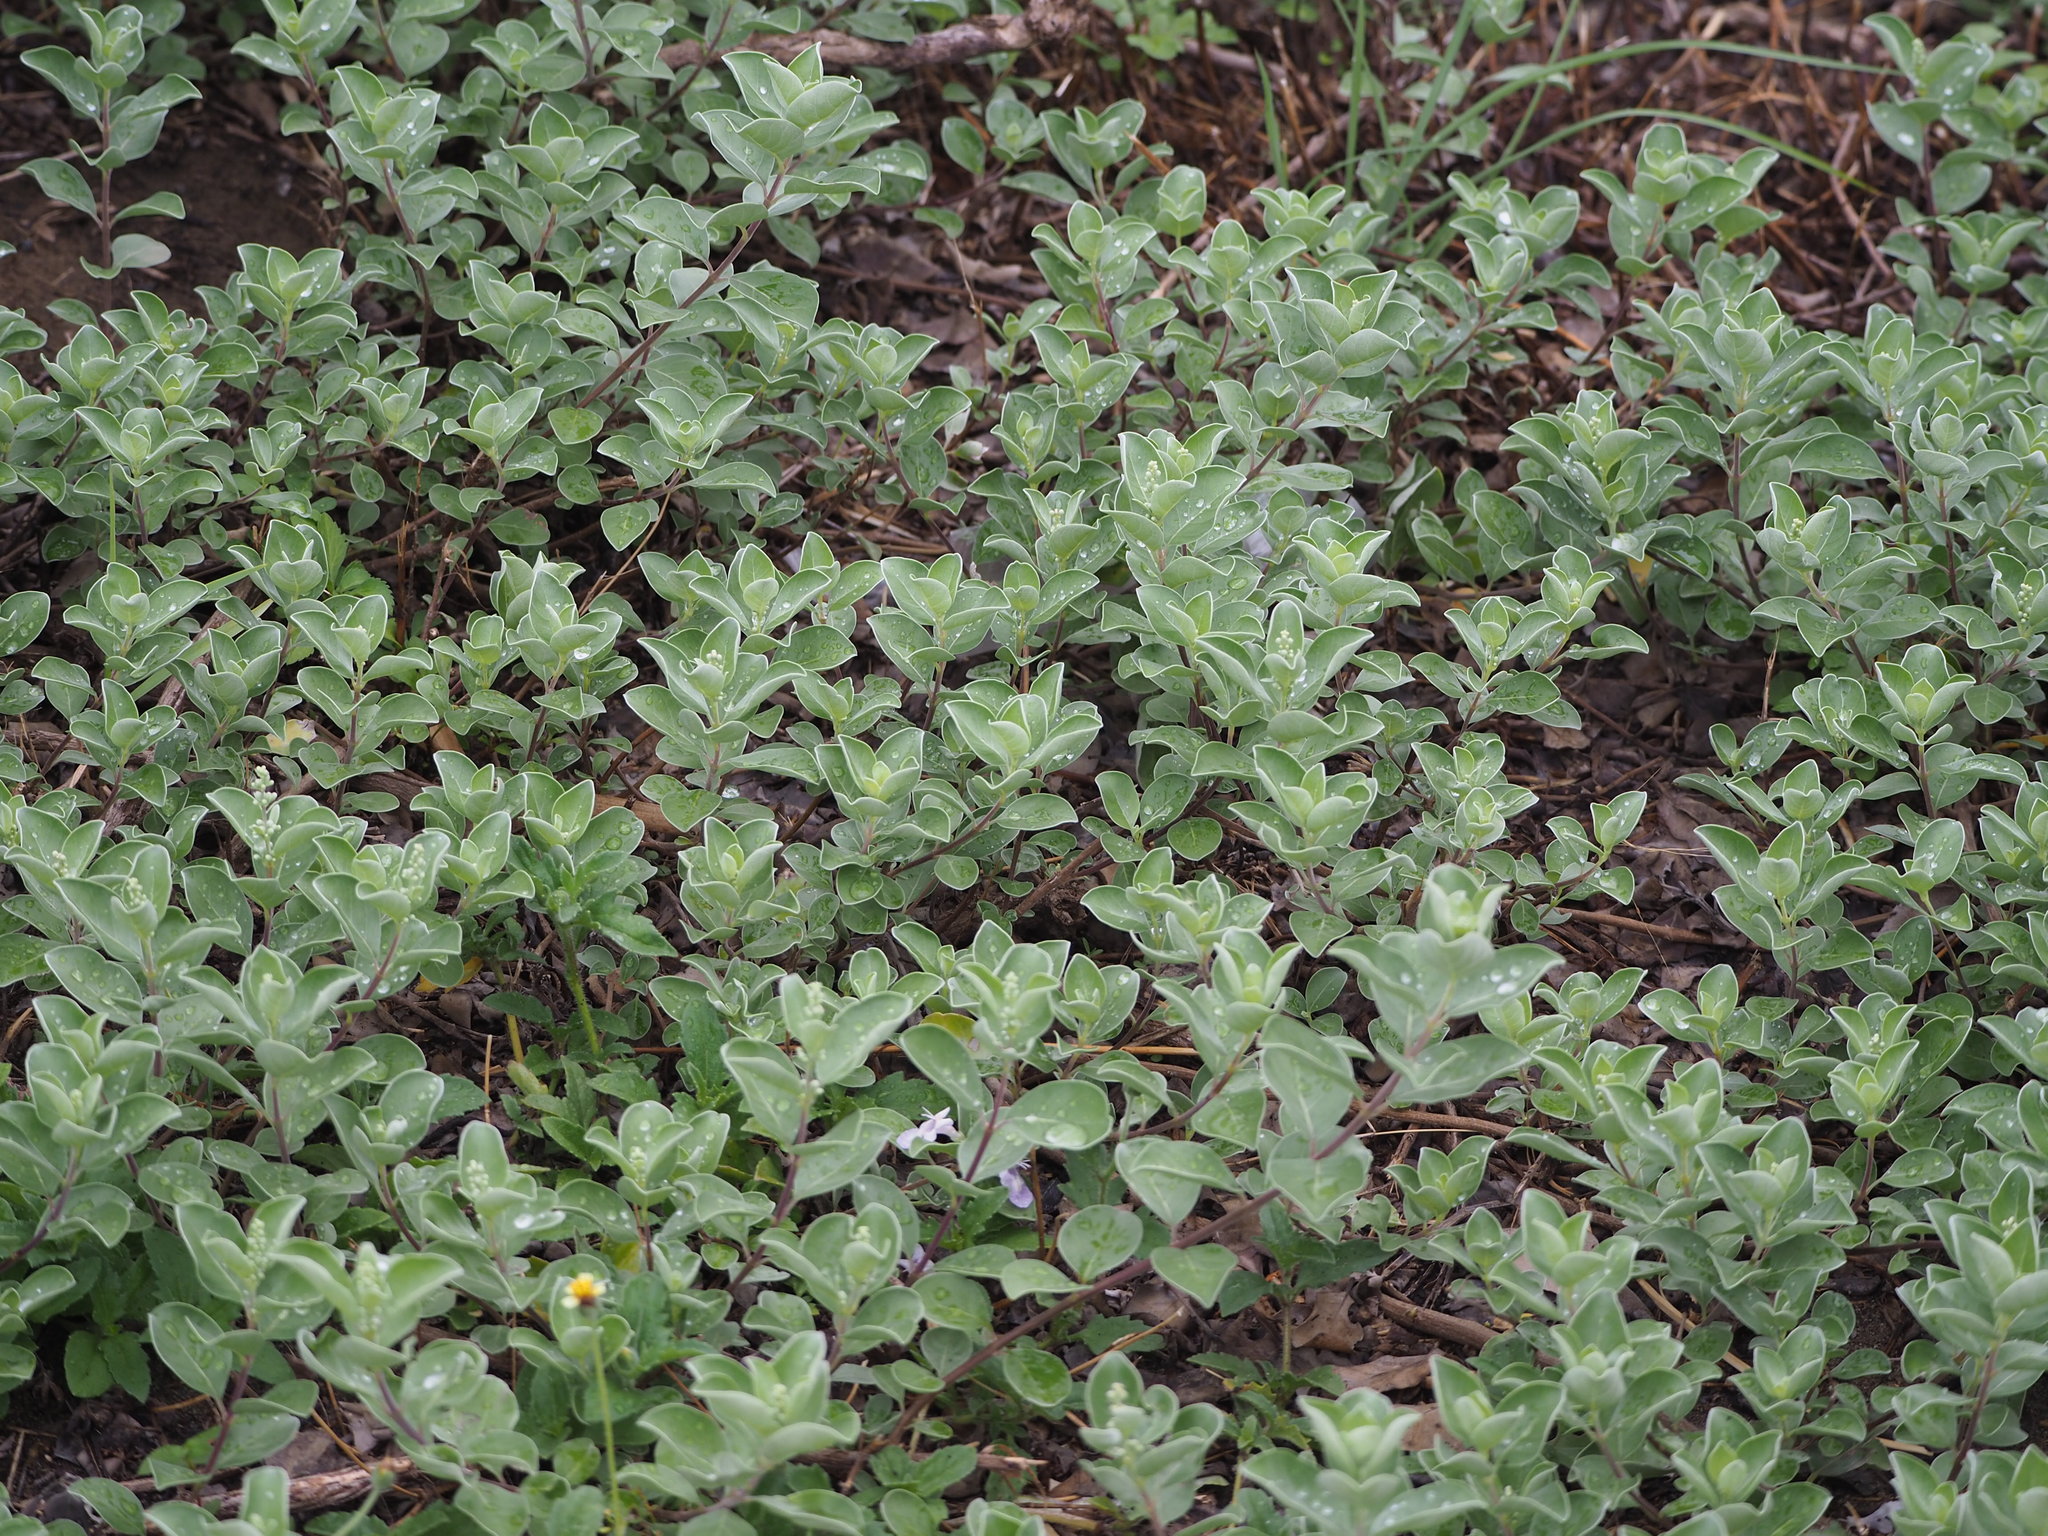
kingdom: Plantae
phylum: Tracheophyta
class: Magnoliopsida
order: Lamiales
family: Lamiaceae
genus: Vitex
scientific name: Vitex rotundifolia
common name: Beach vitex
